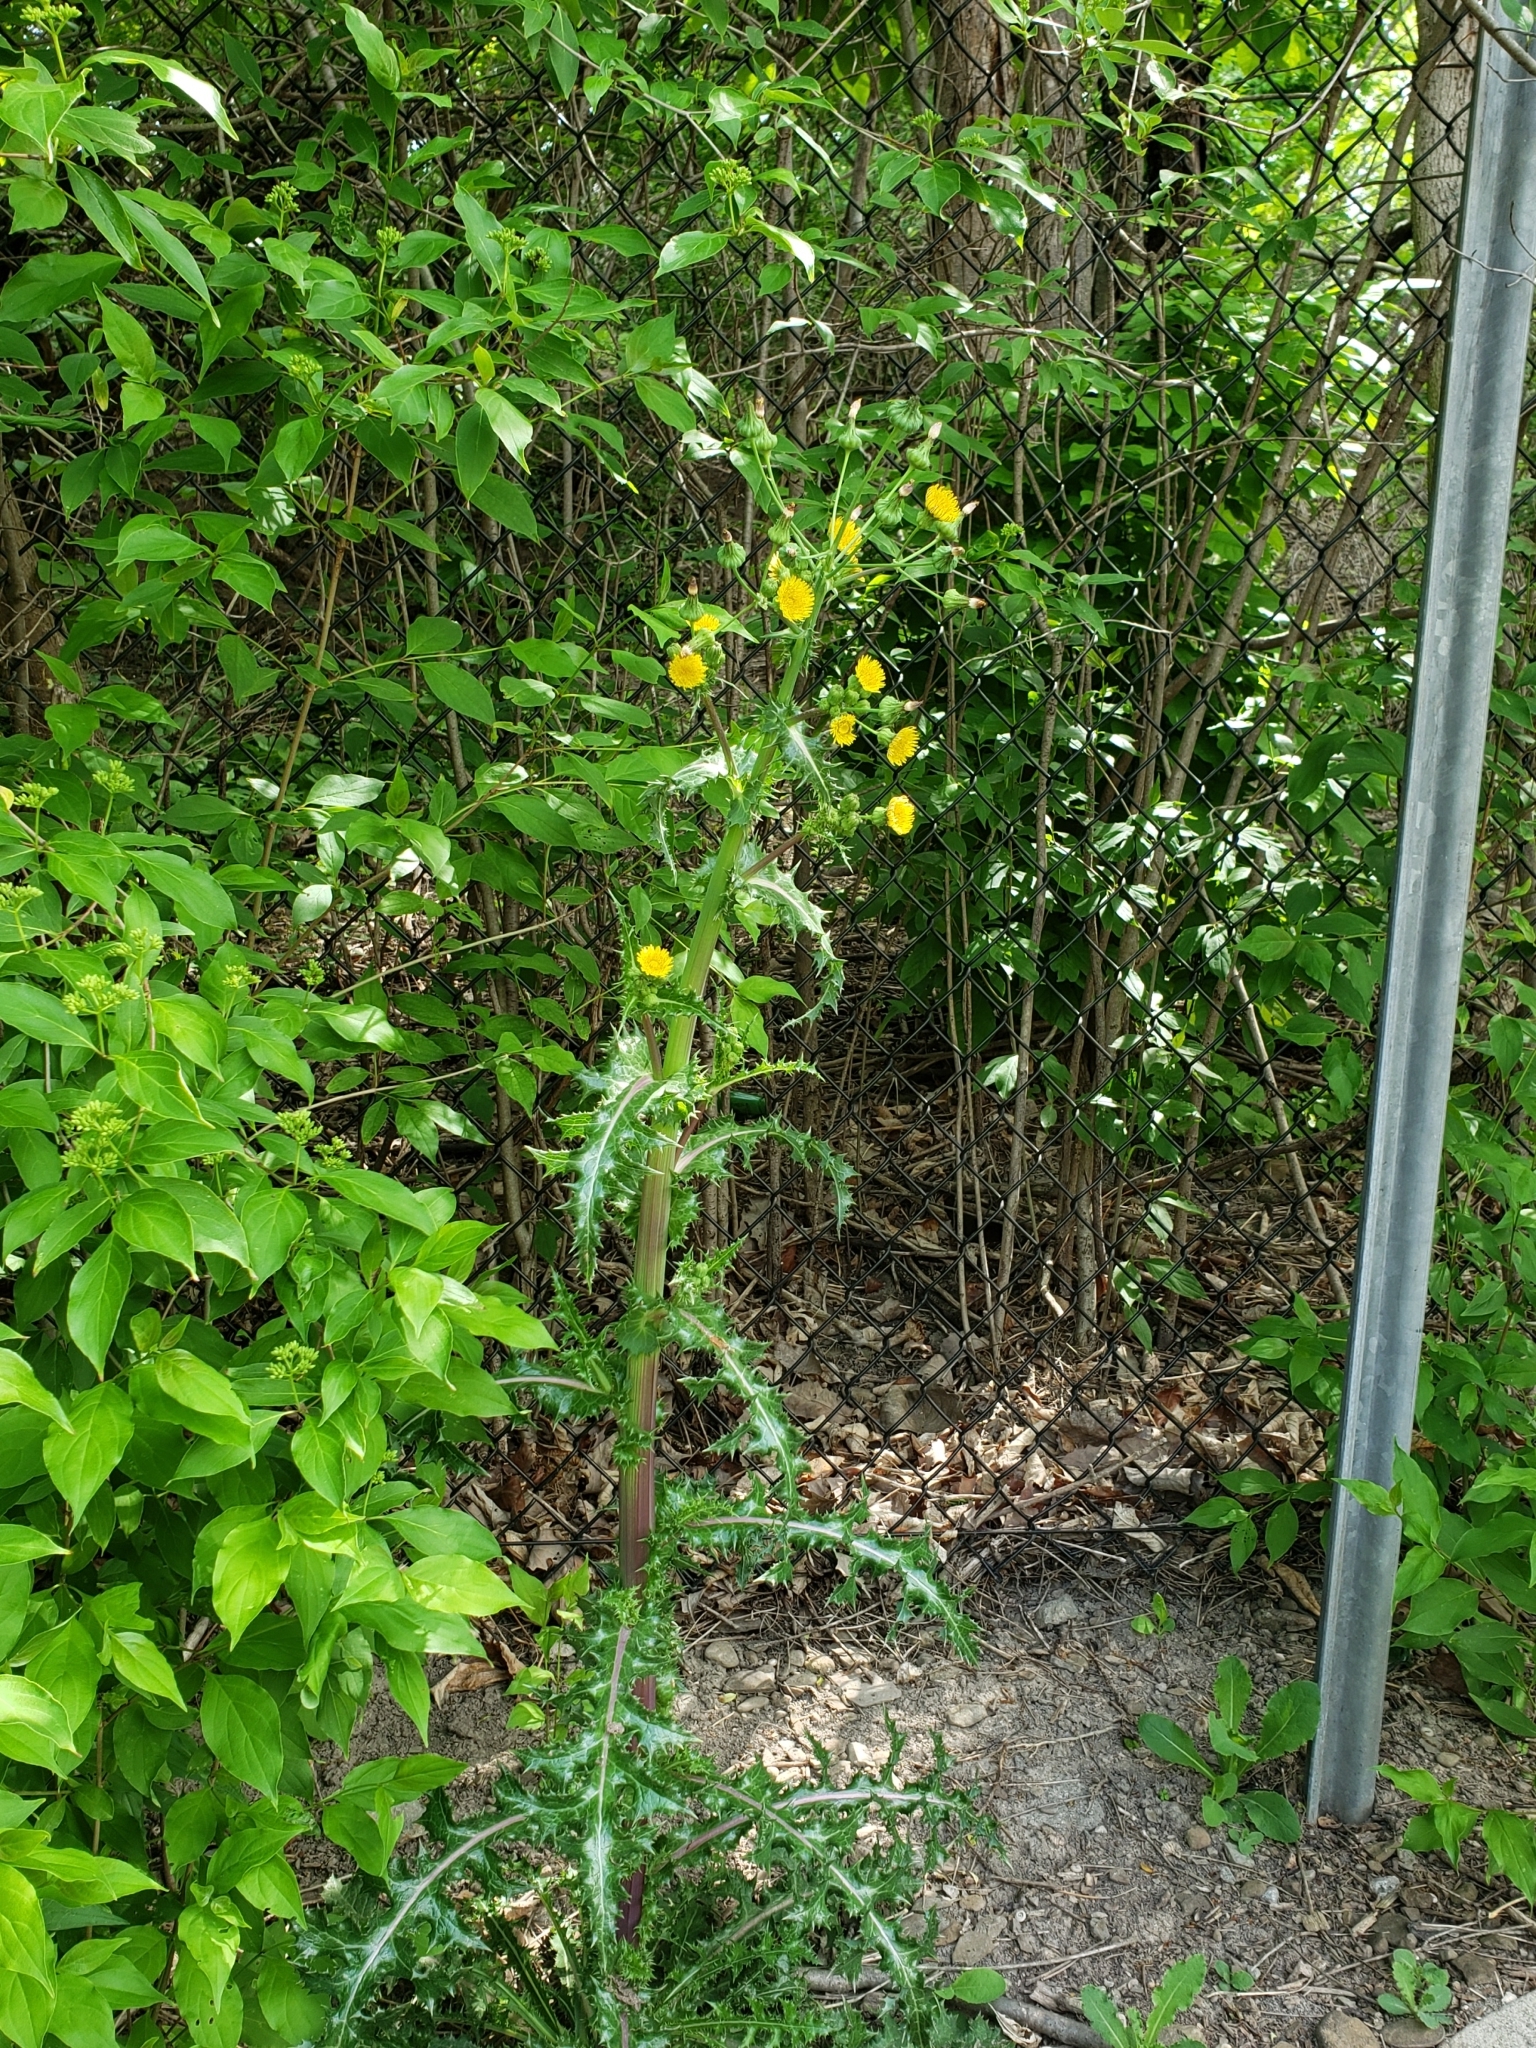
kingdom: Plantae
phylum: Tracheophyta
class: Magnoliopsida
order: Asterales
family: Asteraceae
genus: Sonchus
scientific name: Sonchus asper
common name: Prickly sow-thistle
